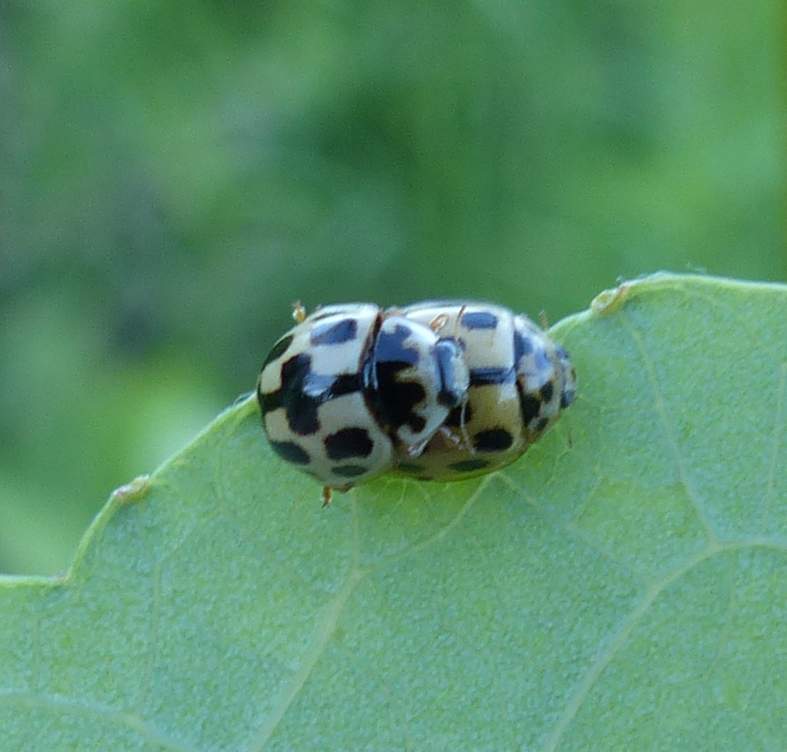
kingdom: Animalia
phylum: Arthropoda
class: Insecta
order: Coleoptera
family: Coccinellidae
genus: Propylaea
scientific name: Propylaea quatuordecimpunctata
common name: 14-spotted ladybird beetle
